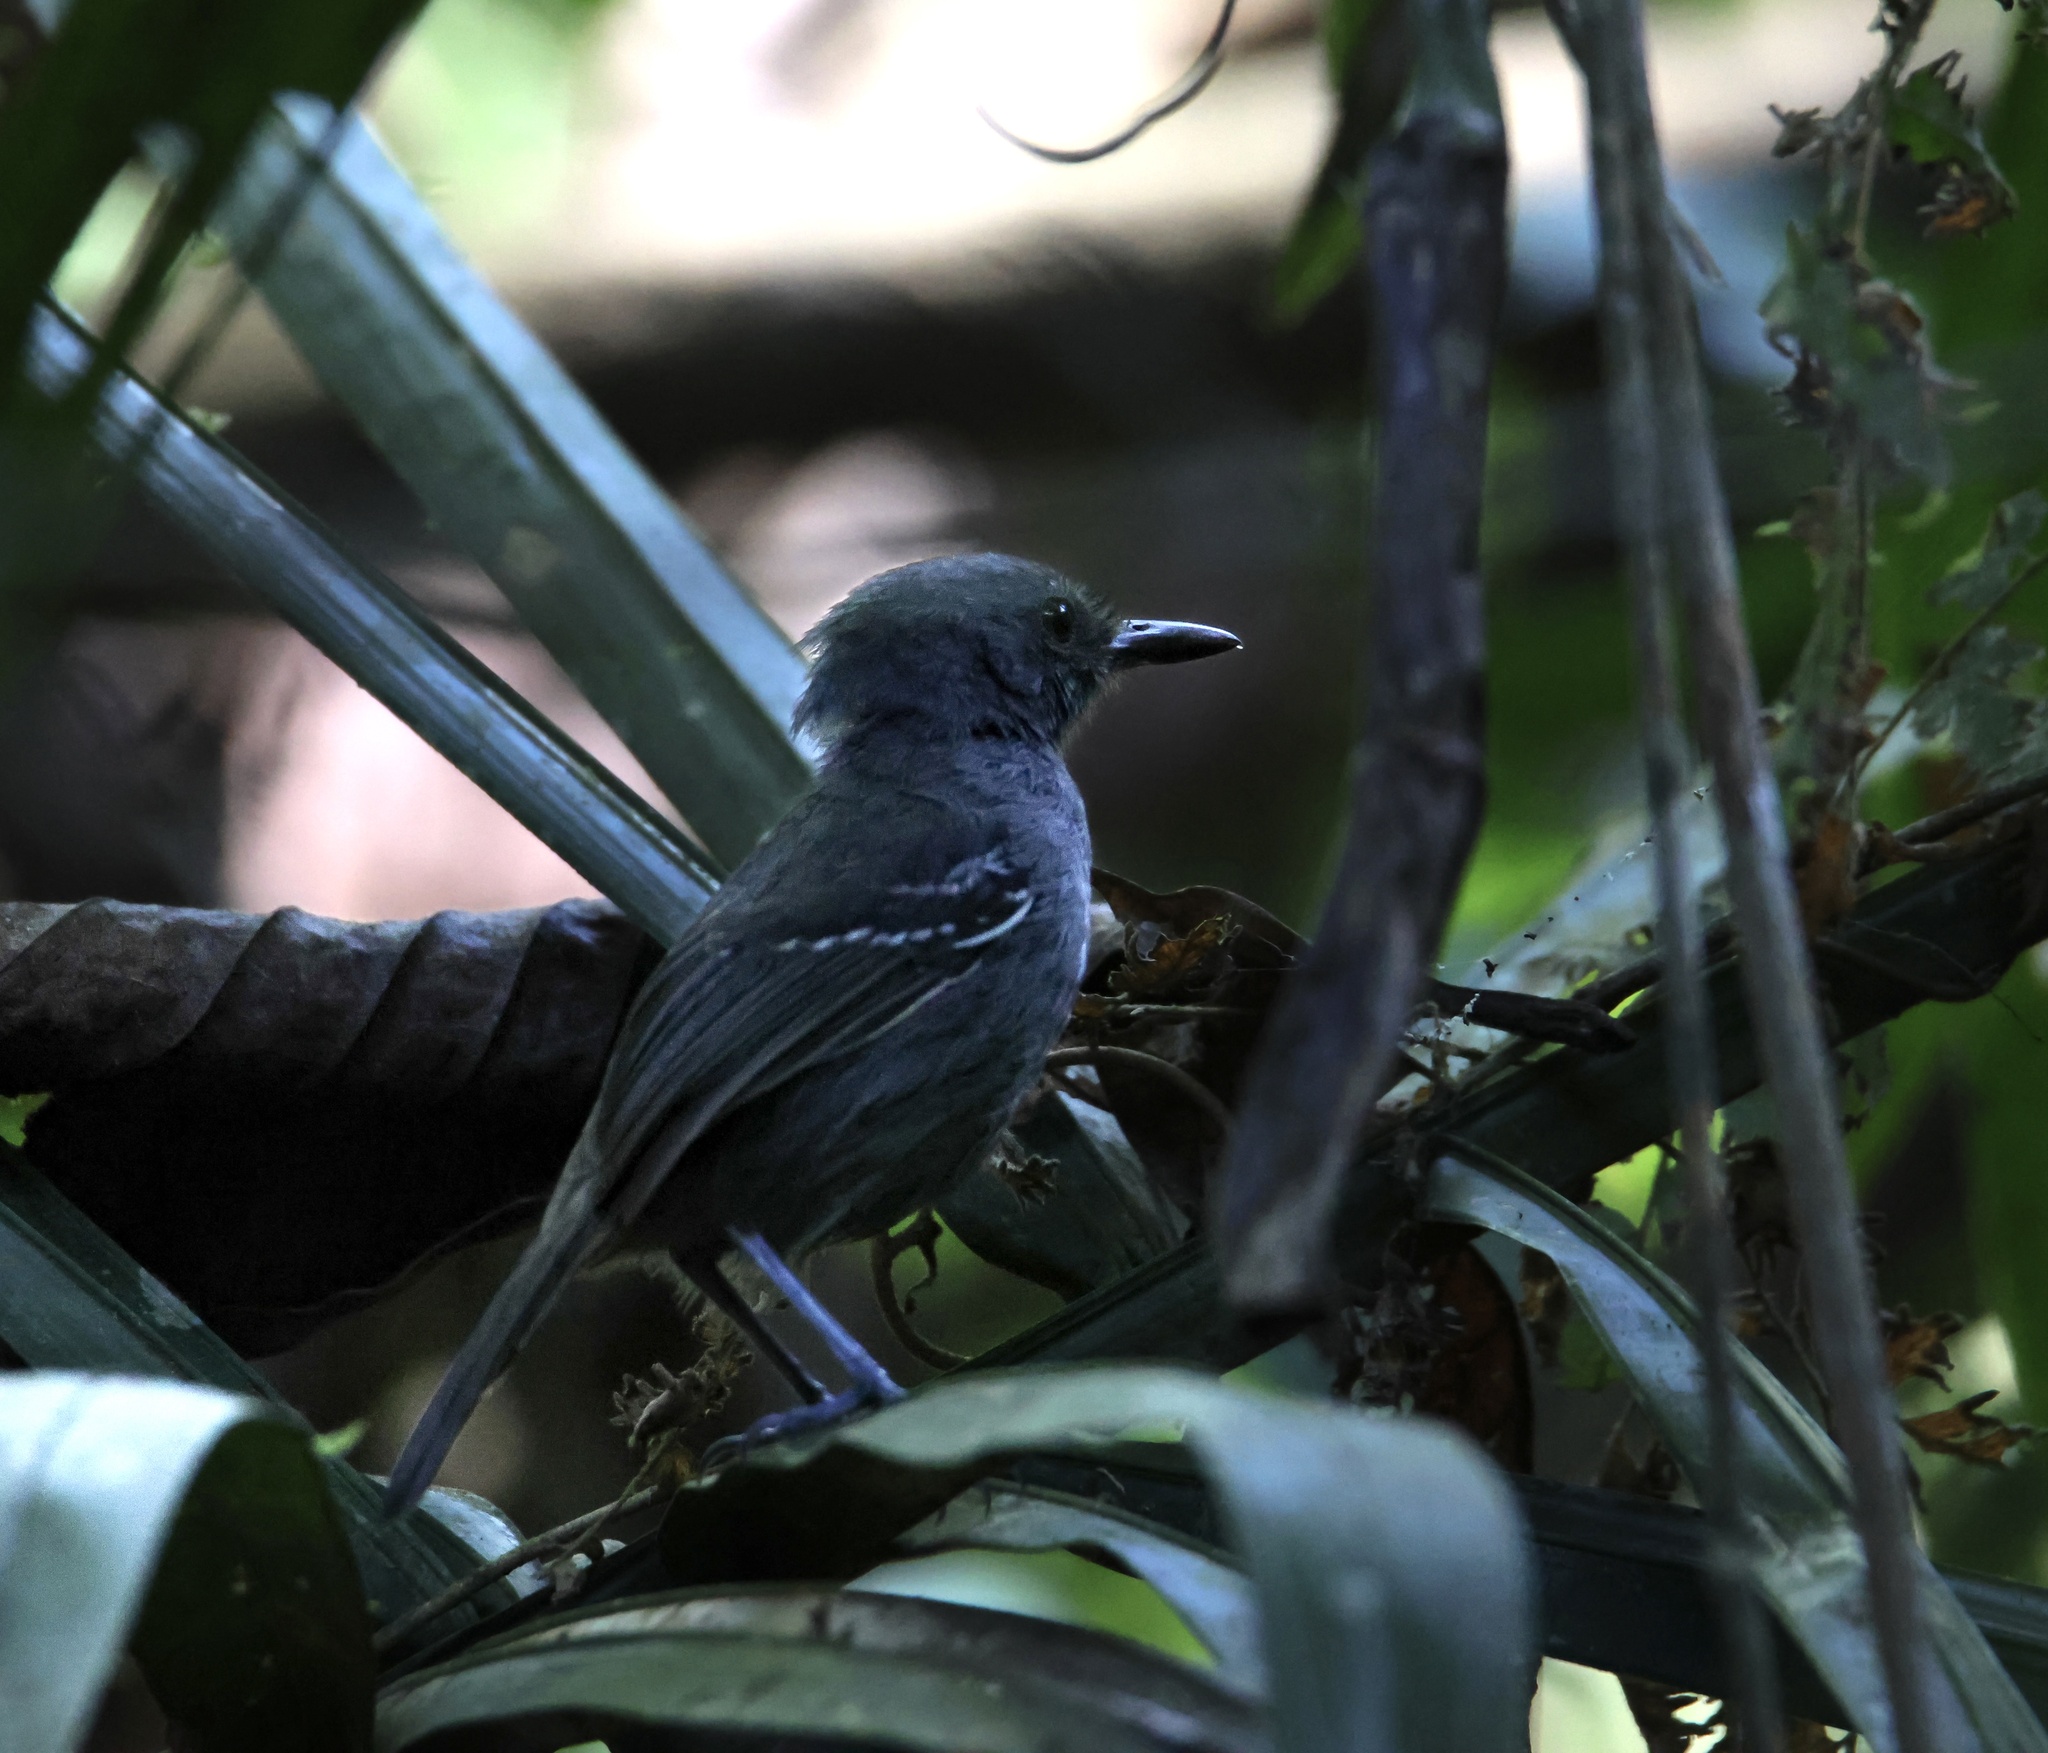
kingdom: Animalia
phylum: Chordata
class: Aves
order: Passeriformes
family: Thamnophilidae
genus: Cercomacra
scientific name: Cercomacra tyrannina
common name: Dusky antbird
